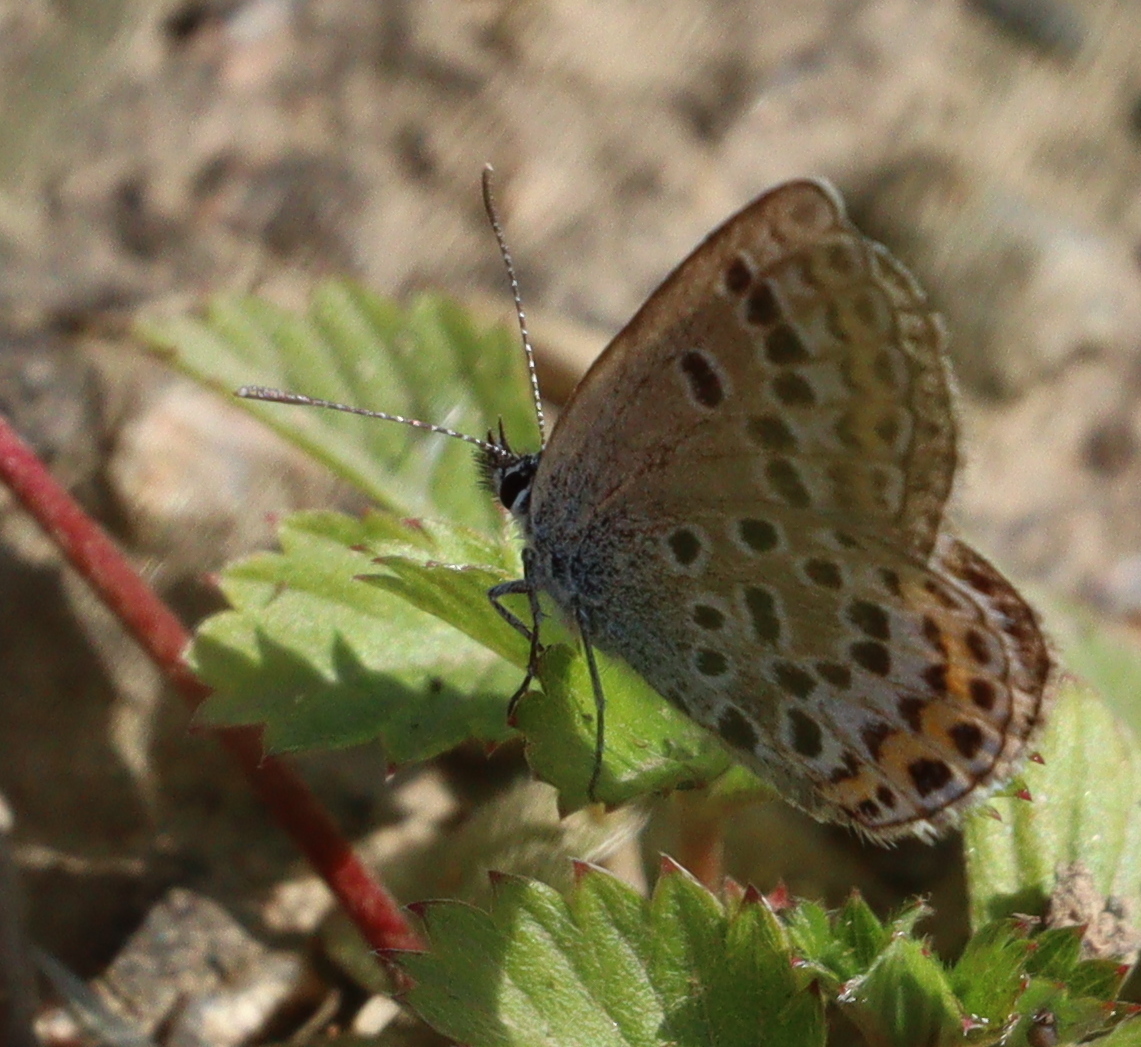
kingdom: Animalia
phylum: Arthropoda
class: Insecta
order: Lepidoptera
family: Lycaenidae
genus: Plebejus
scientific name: Plebejus argus
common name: Silver-studded blue
